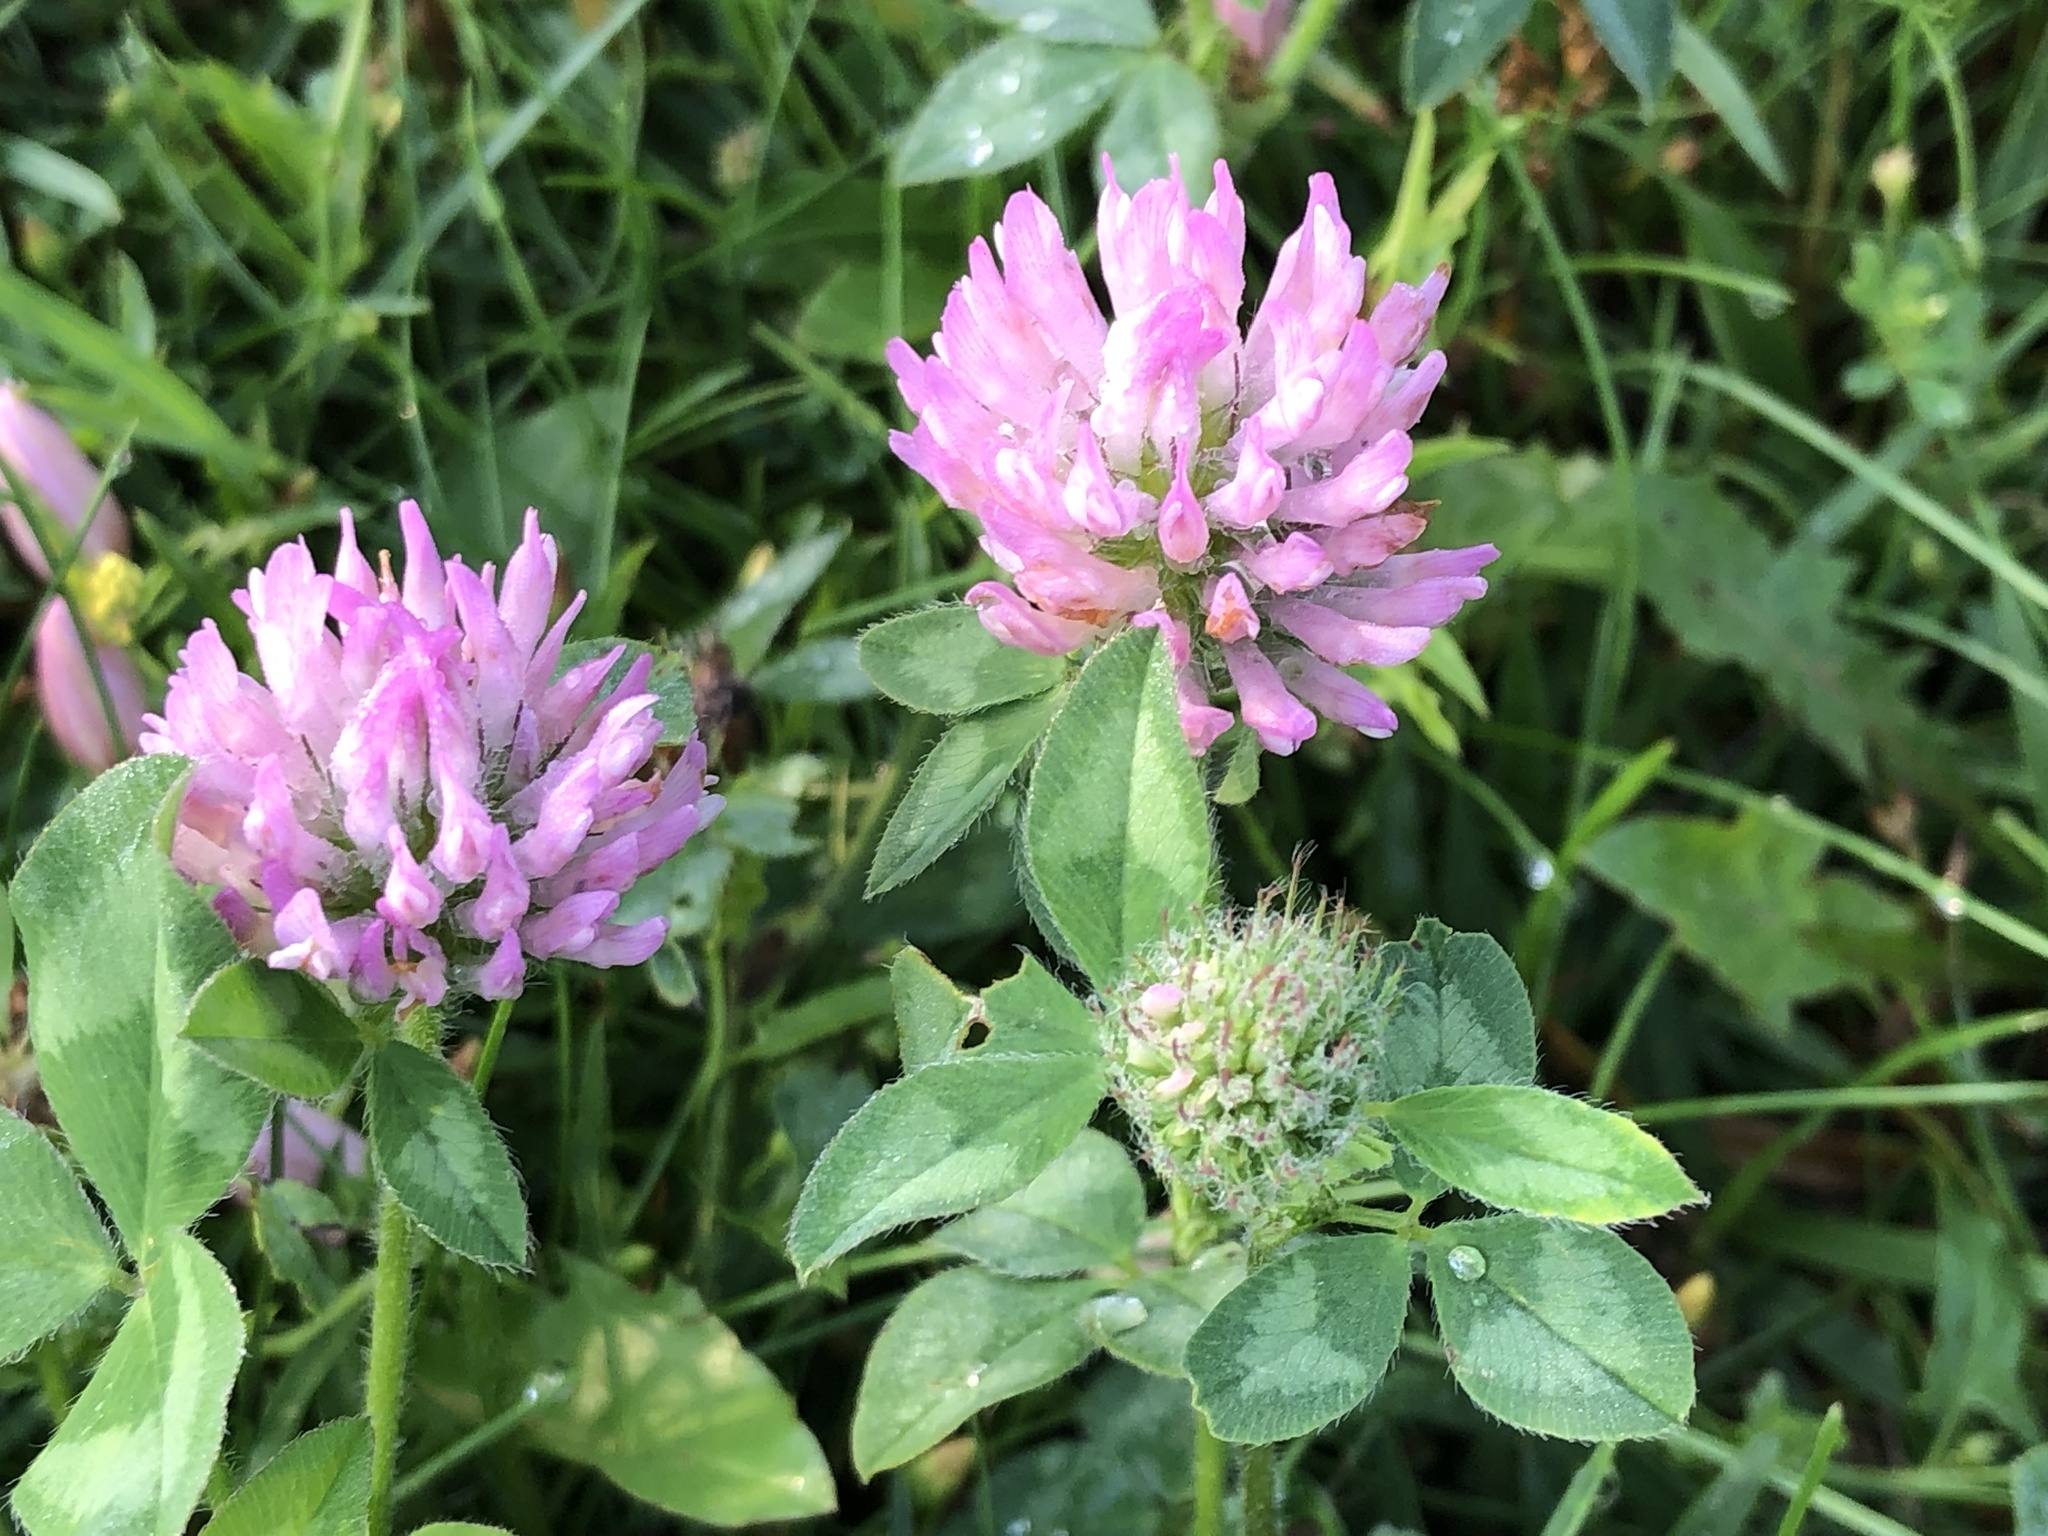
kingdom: Plantae
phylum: Tracheophyta
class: Magnoliopsida
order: Fabales
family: Fabaceae
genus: Trifolium
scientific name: Trifolium pratense
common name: Red clover
